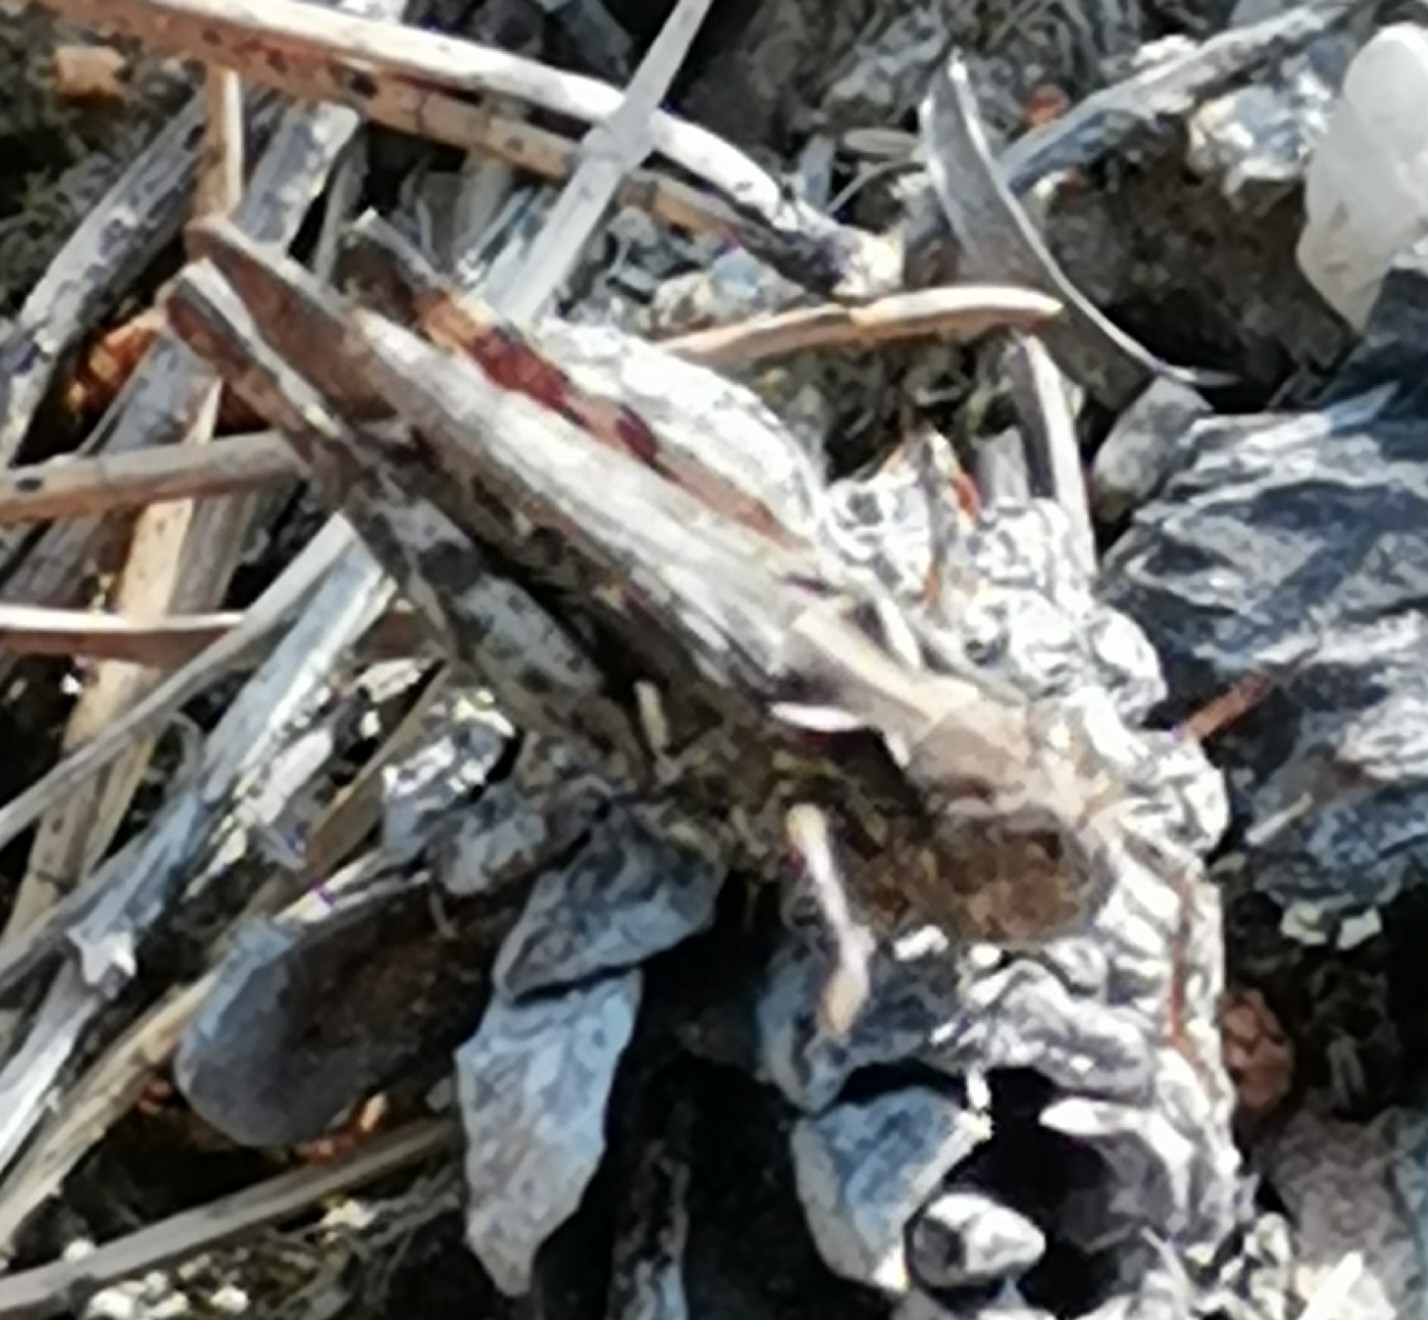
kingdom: Animalia
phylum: Arthropoda
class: Insecta
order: Orthoptera
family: Acrididae
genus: Myrmeleotettix
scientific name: Myrmeleotettix maculatus
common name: Mottled grasshopper
